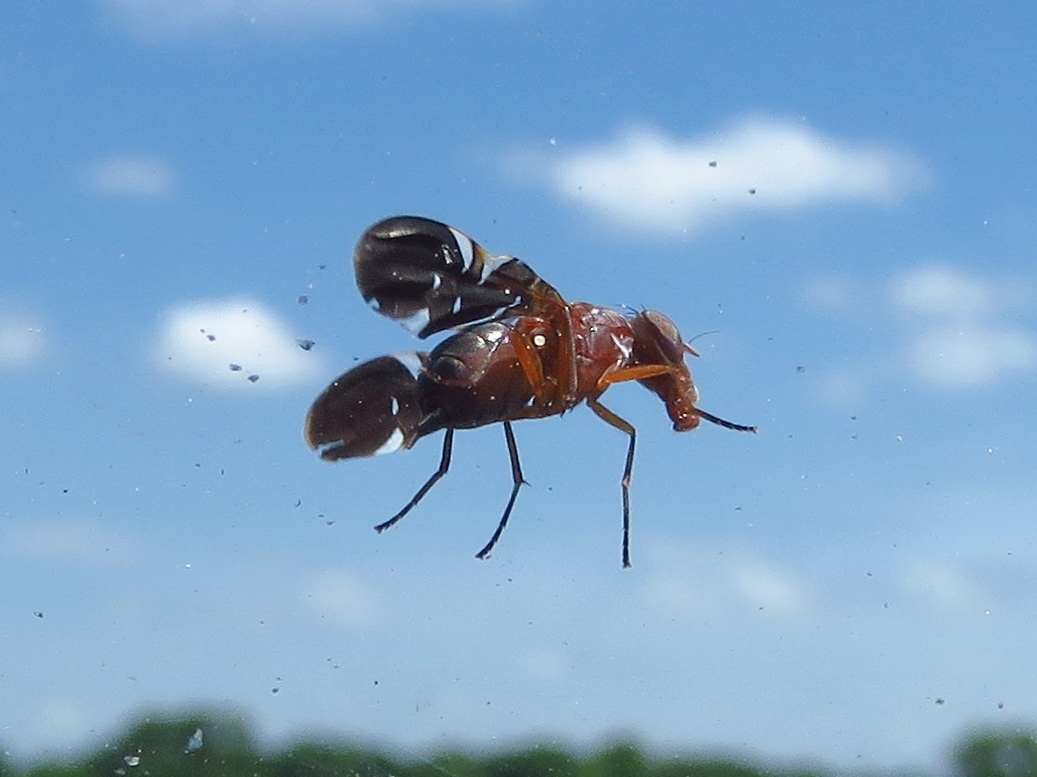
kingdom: Animalia
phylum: Arthropoda
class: Insecta
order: Diptera
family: Ulidiidae
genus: Delphinia
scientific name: Delphinia picta
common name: Common picture-winged fly
